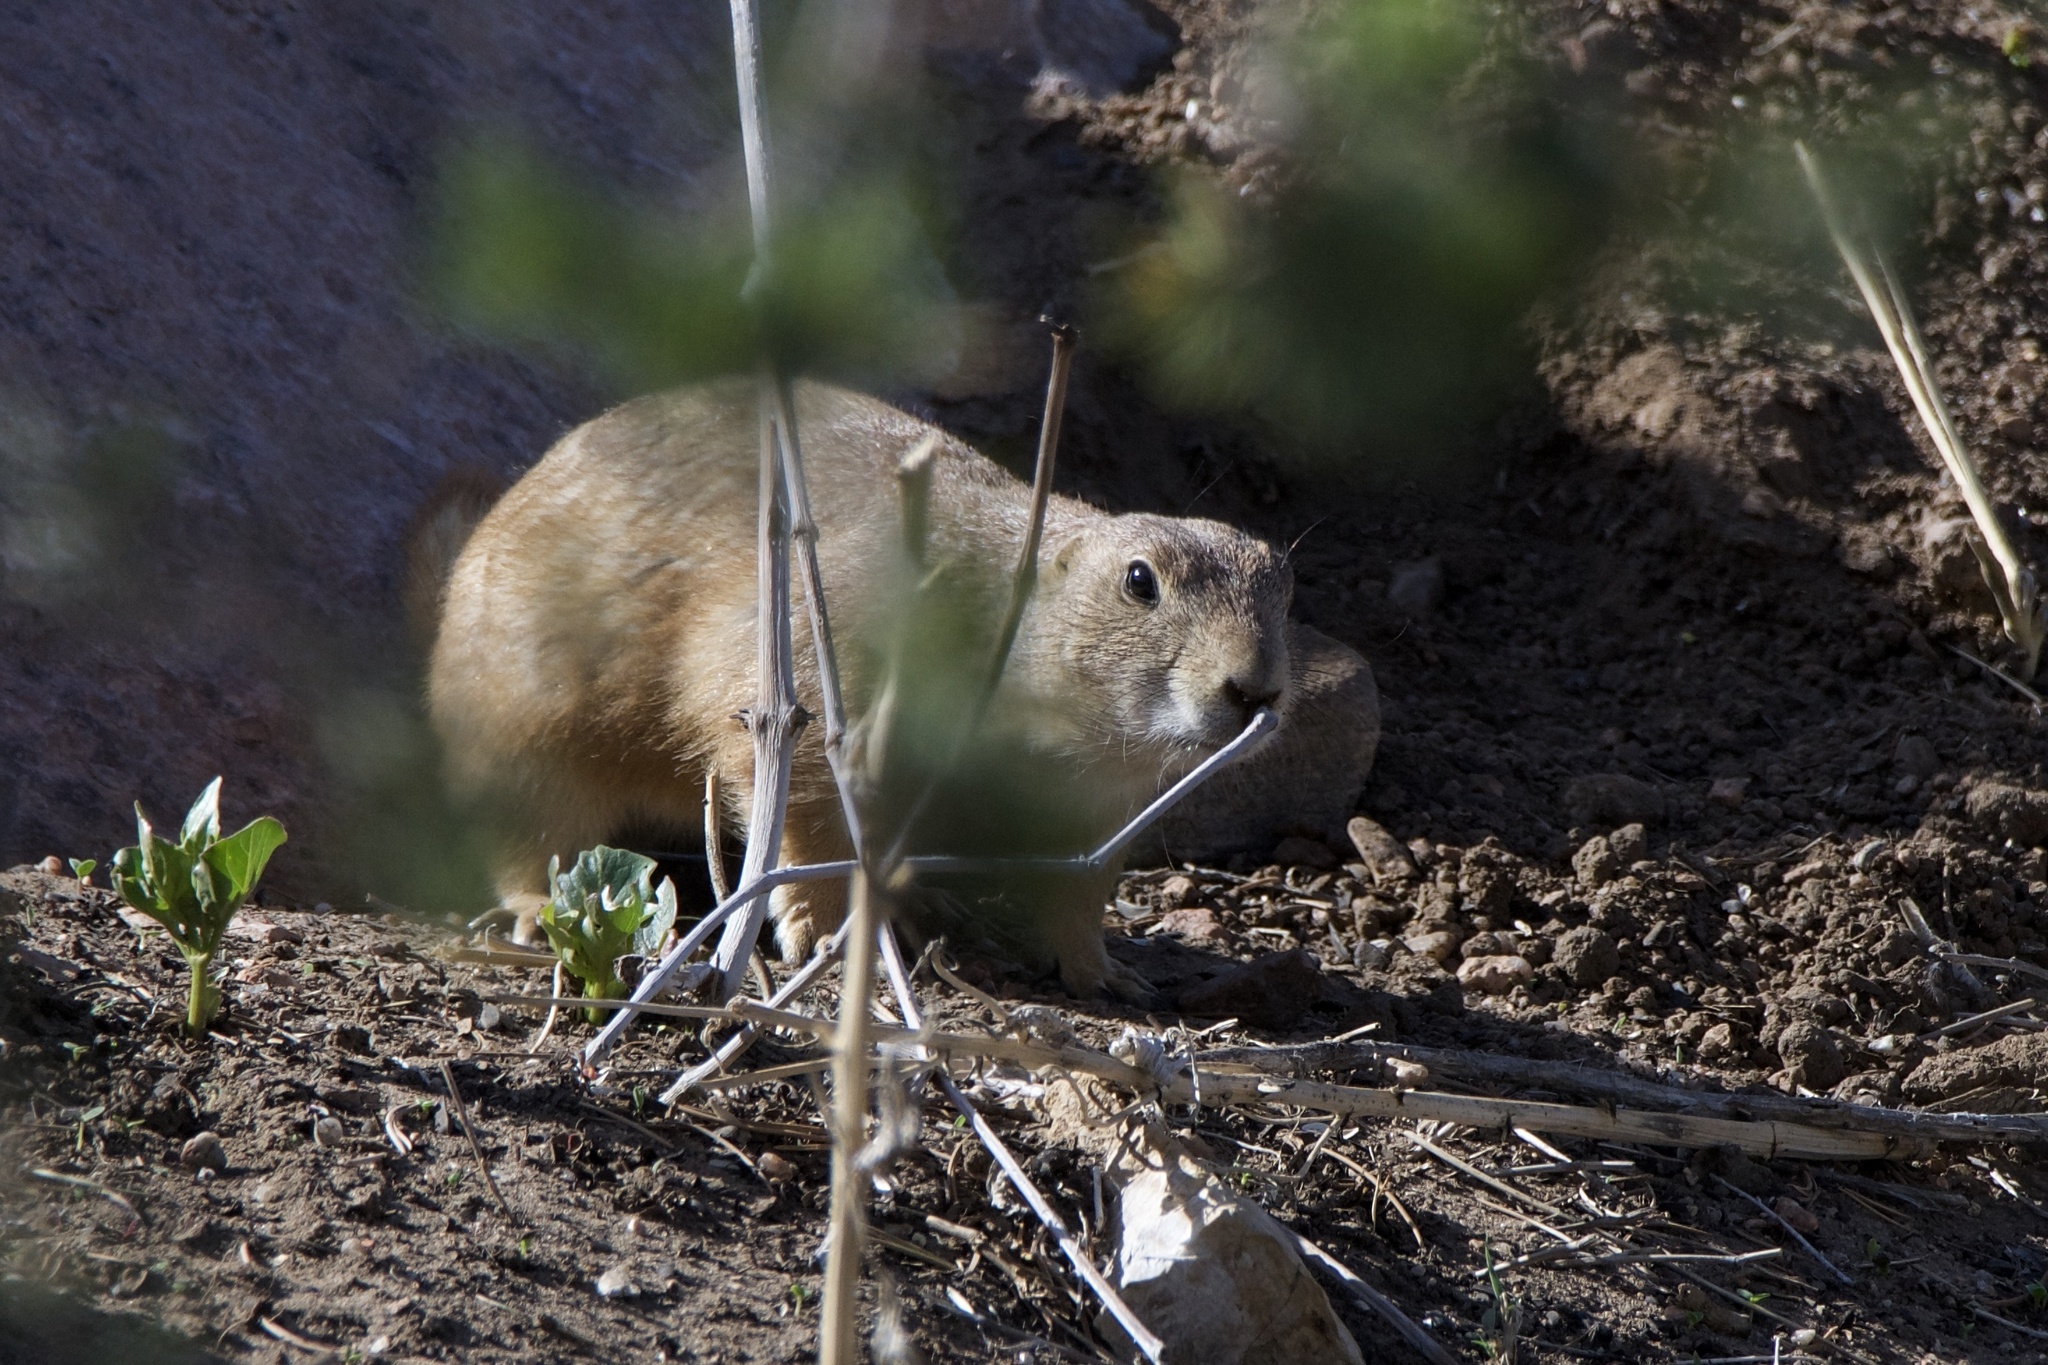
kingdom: Animalia
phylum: Chordata
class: Mammalia
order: Rodentia
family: Sciuridae
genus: Cynomys
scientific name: Cynomys ludovicianus
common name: Black-tailed prairie dog
